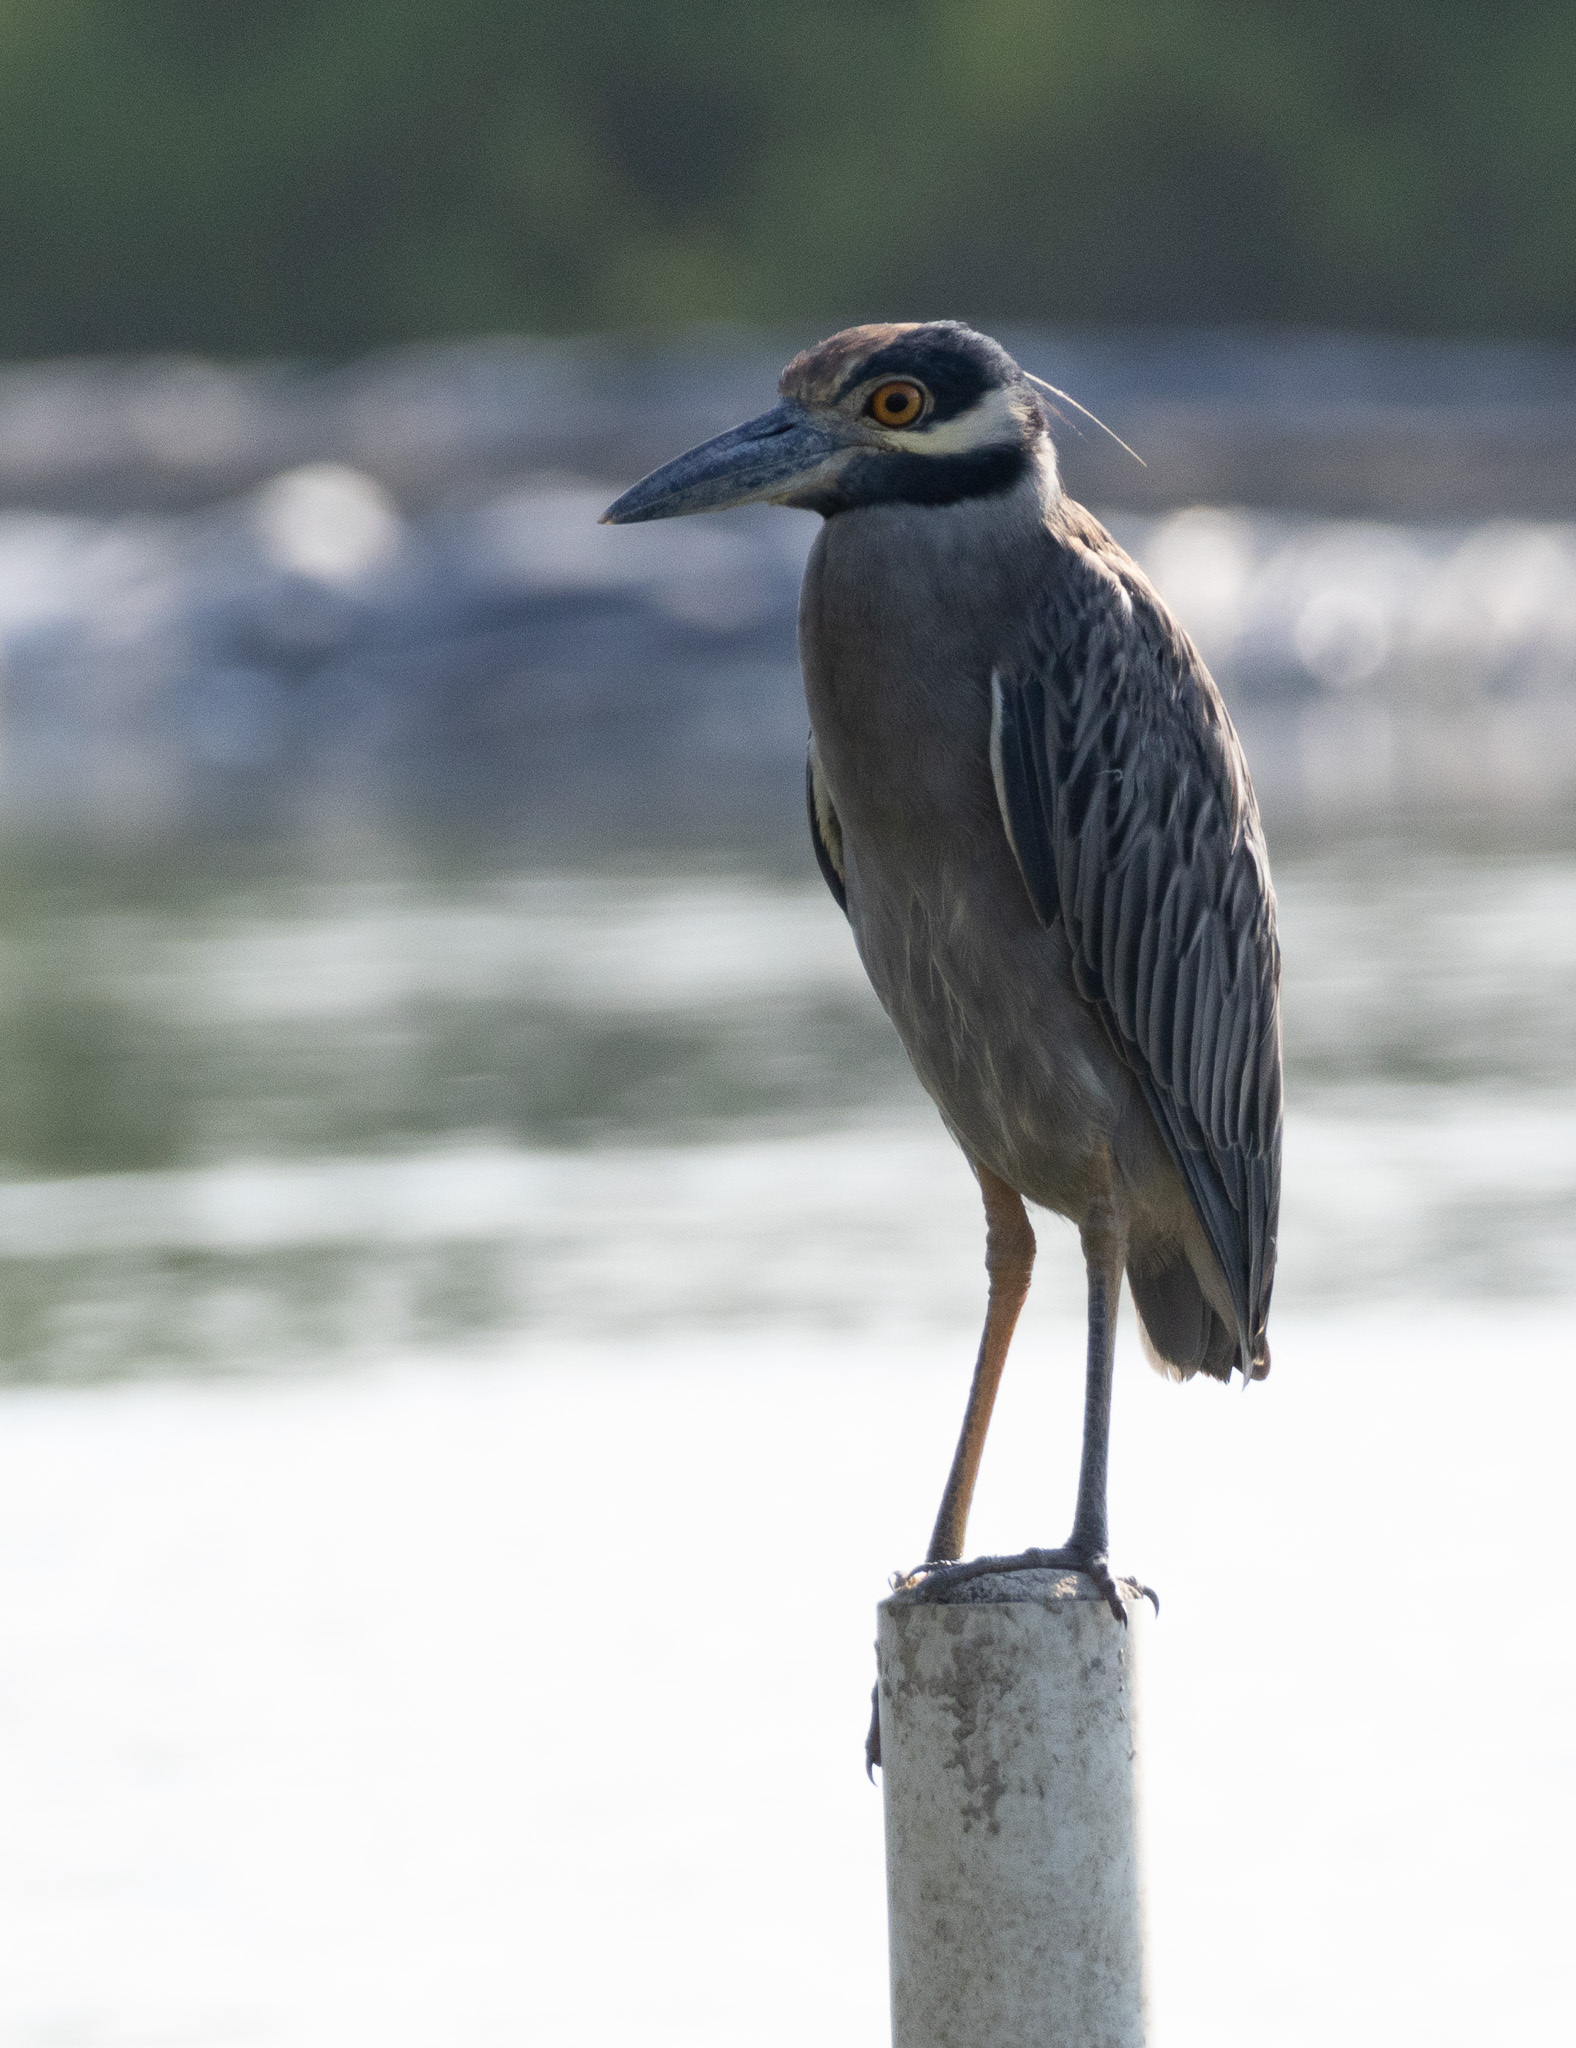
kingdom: Animalia
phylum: Chordata
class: Aves
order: Pelecaniformes
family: Ardeidae
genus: Nyctanassa
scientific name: Nyctanassa violacea
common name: Yellow-crowned night heron
